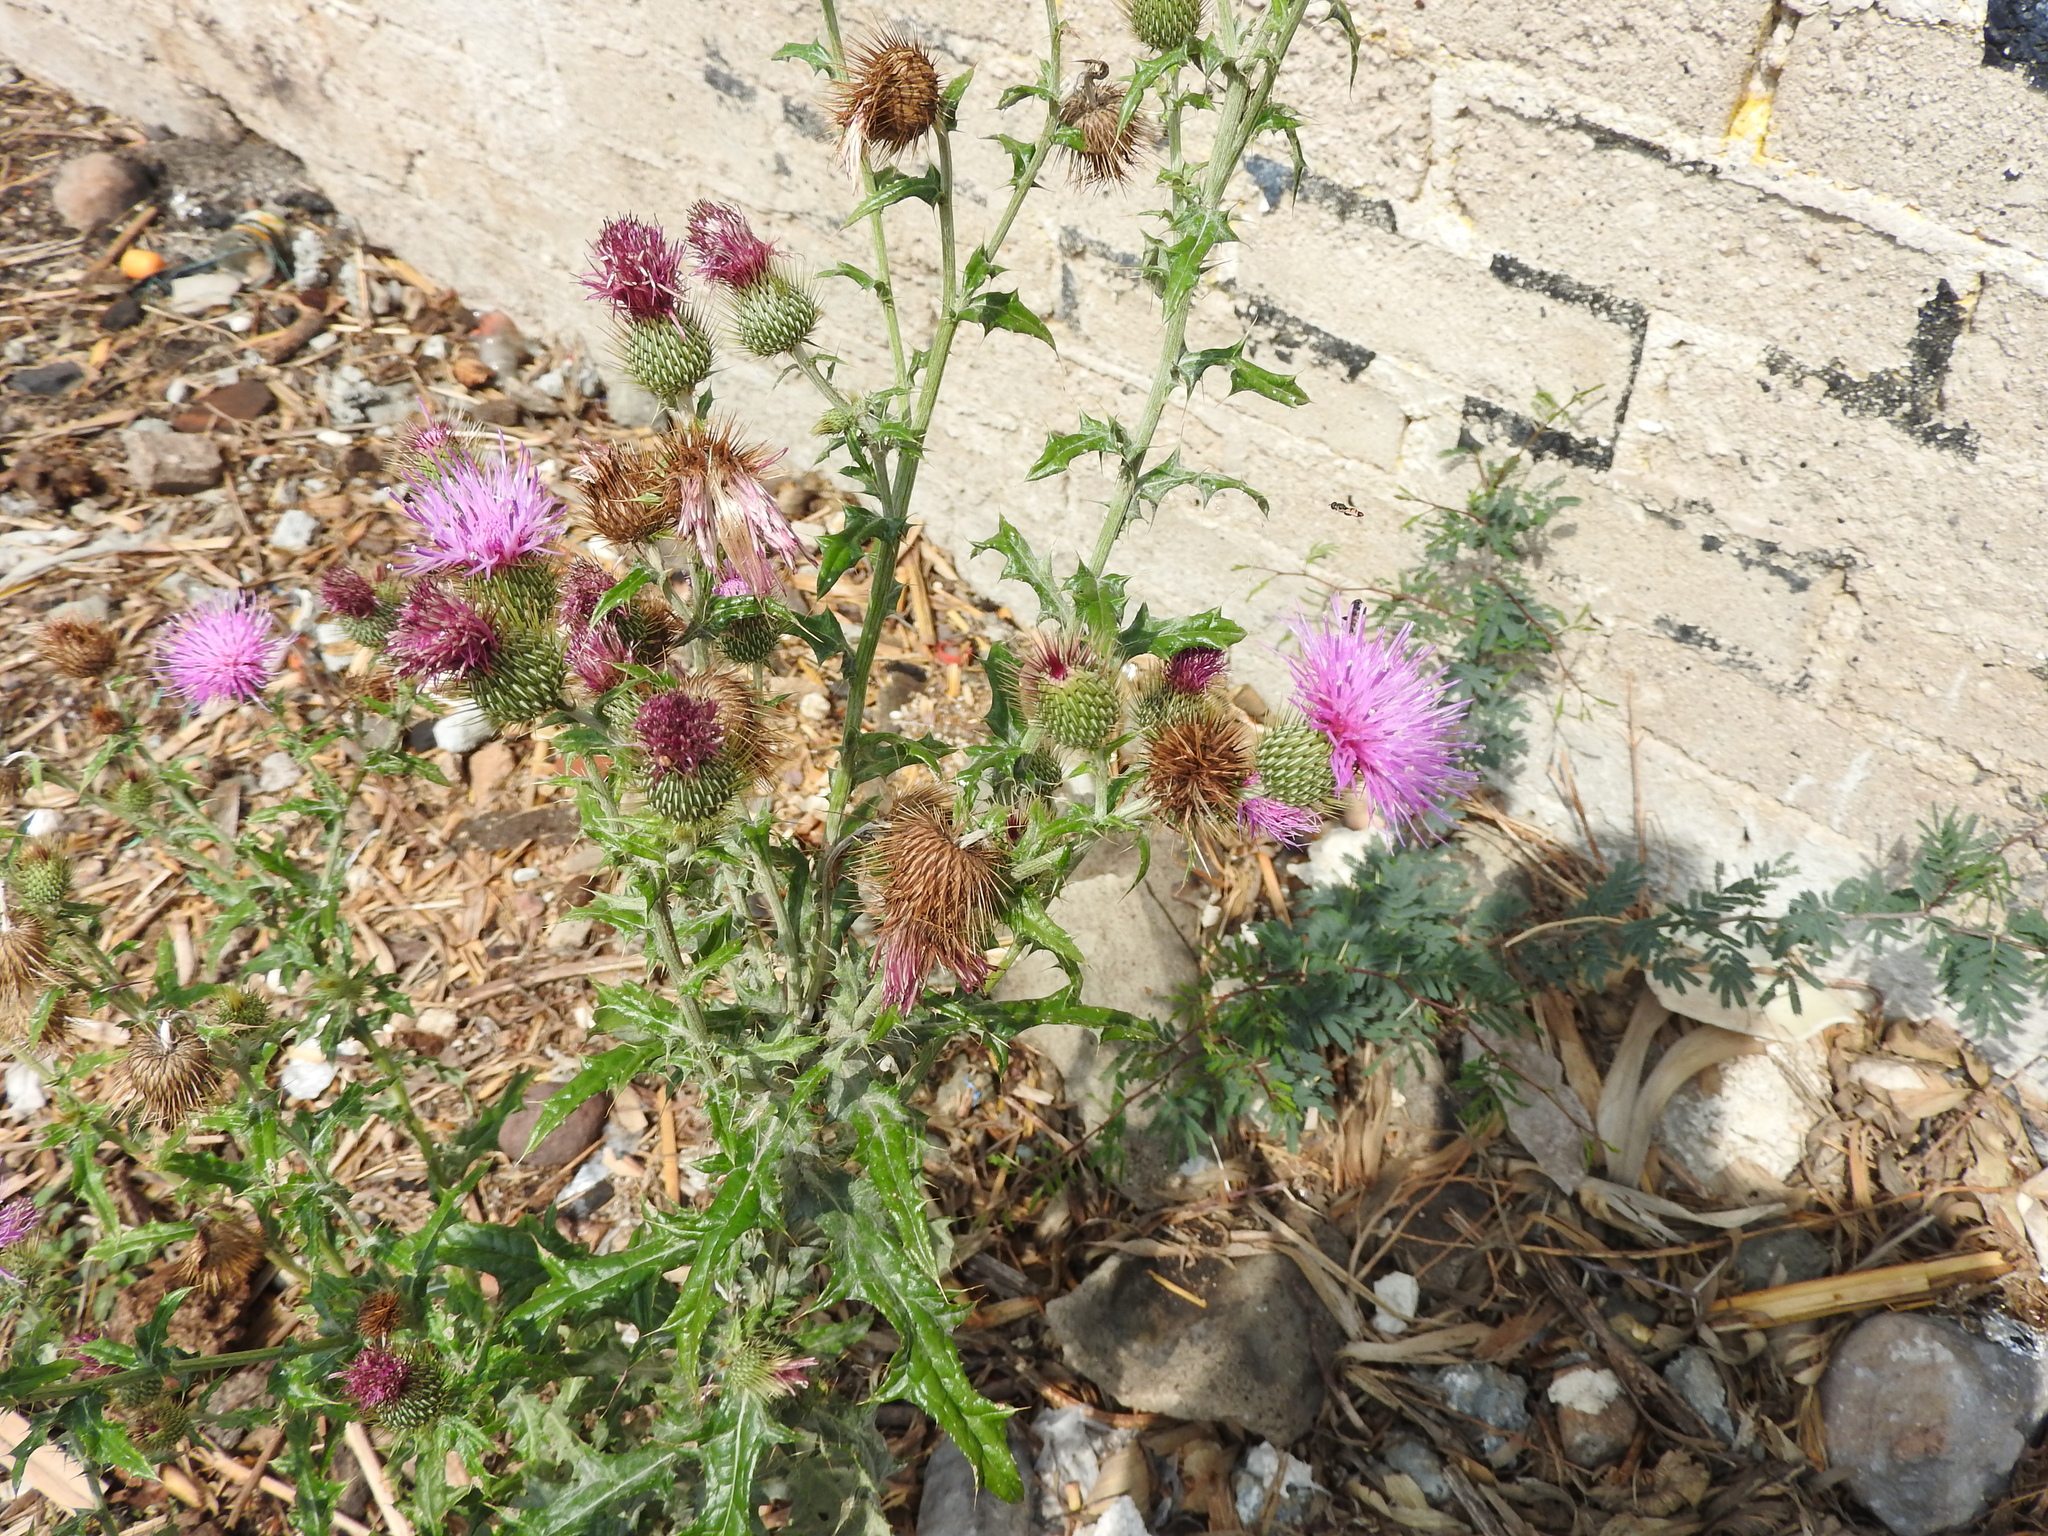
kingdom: Plantae
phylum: Tracheophyta
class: Magnoliopsida
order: Asterales
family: Asteraceae
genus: Cirsium
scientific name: Cirsium rhaphilepis
